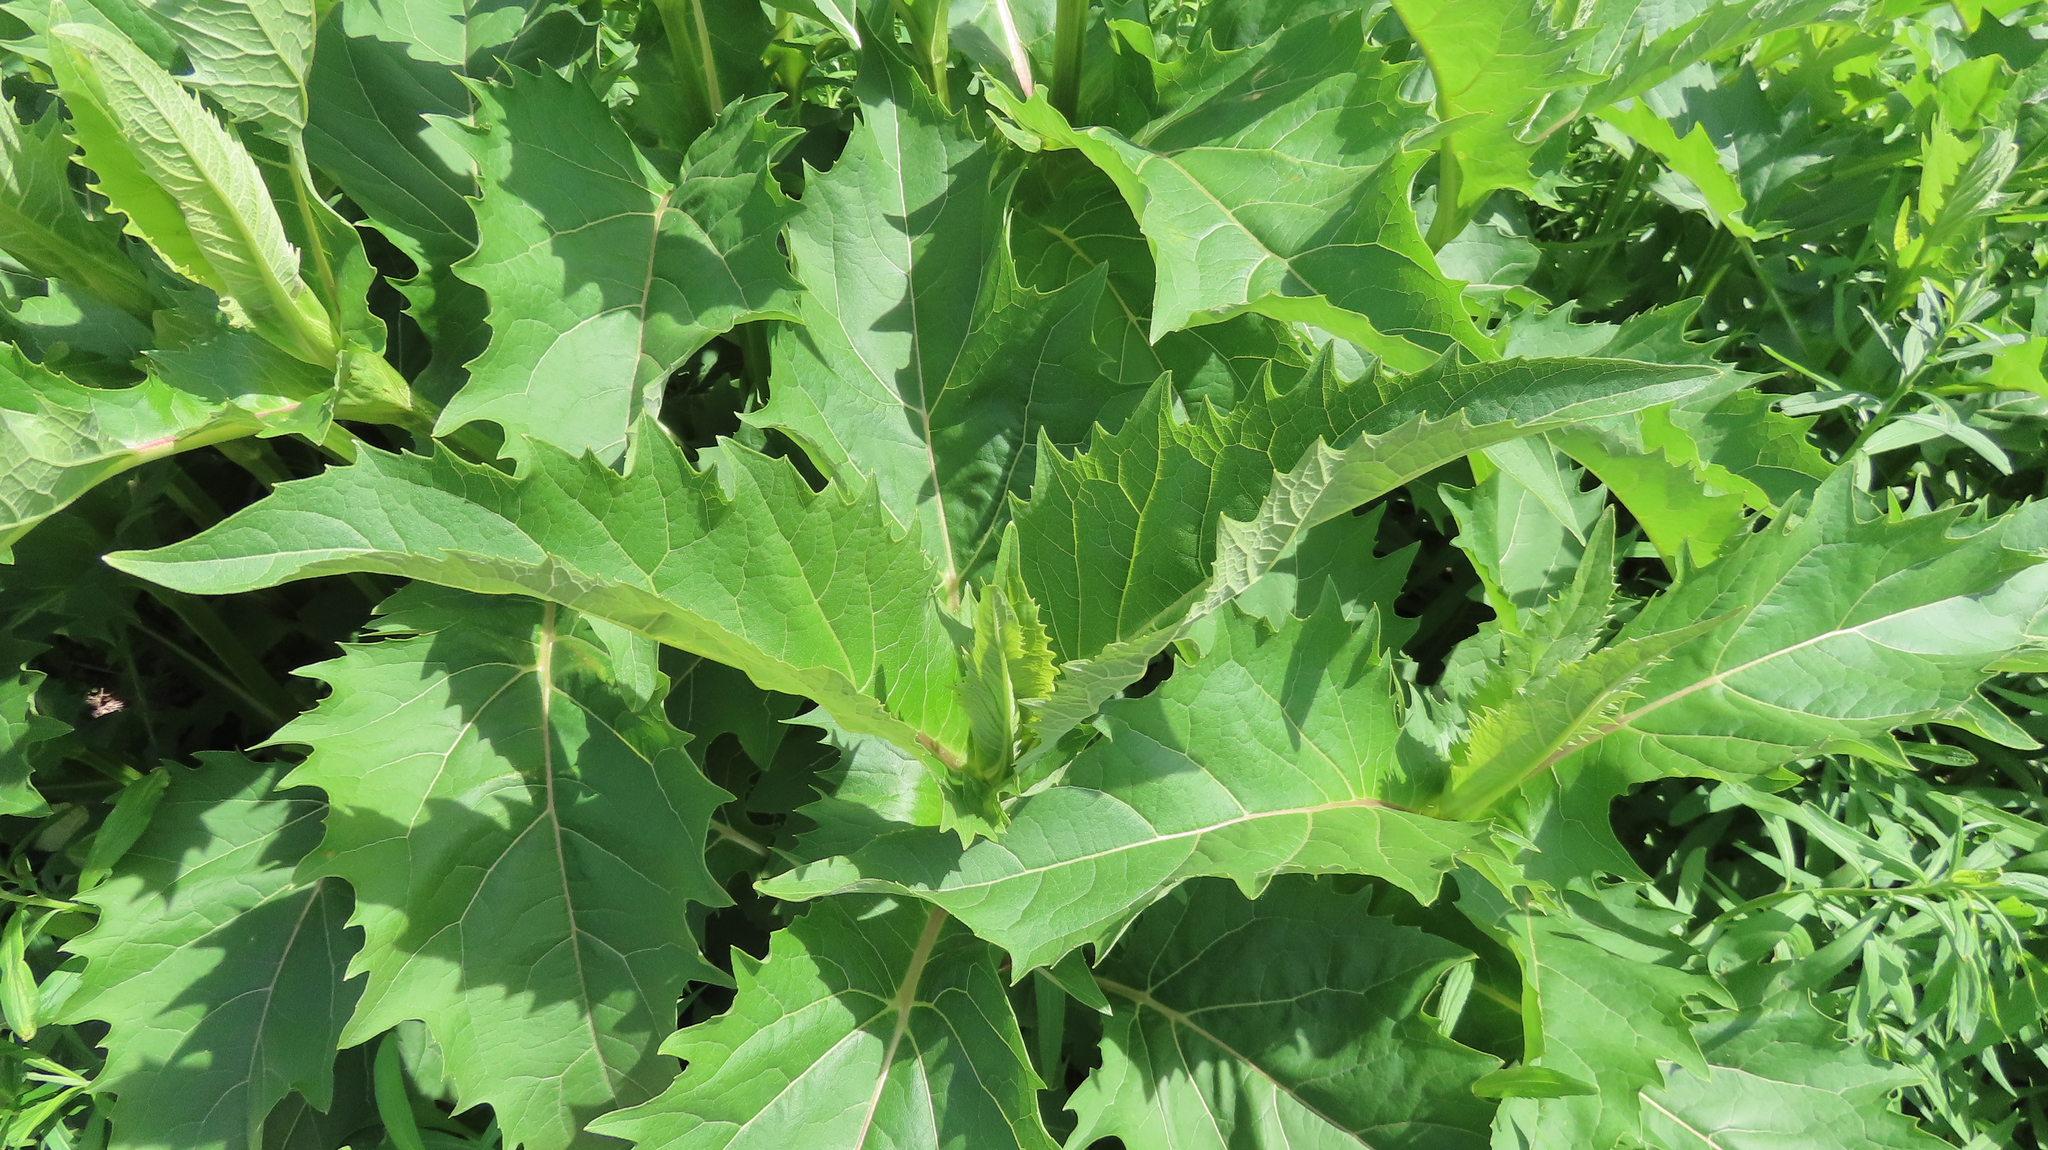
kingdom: Plantae
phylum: Tracheophyta
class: Magnoliopsida
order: Asterales
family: Asteraceae
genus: Silphium
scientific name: Silphium perfoliatum
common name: Cup-plant
